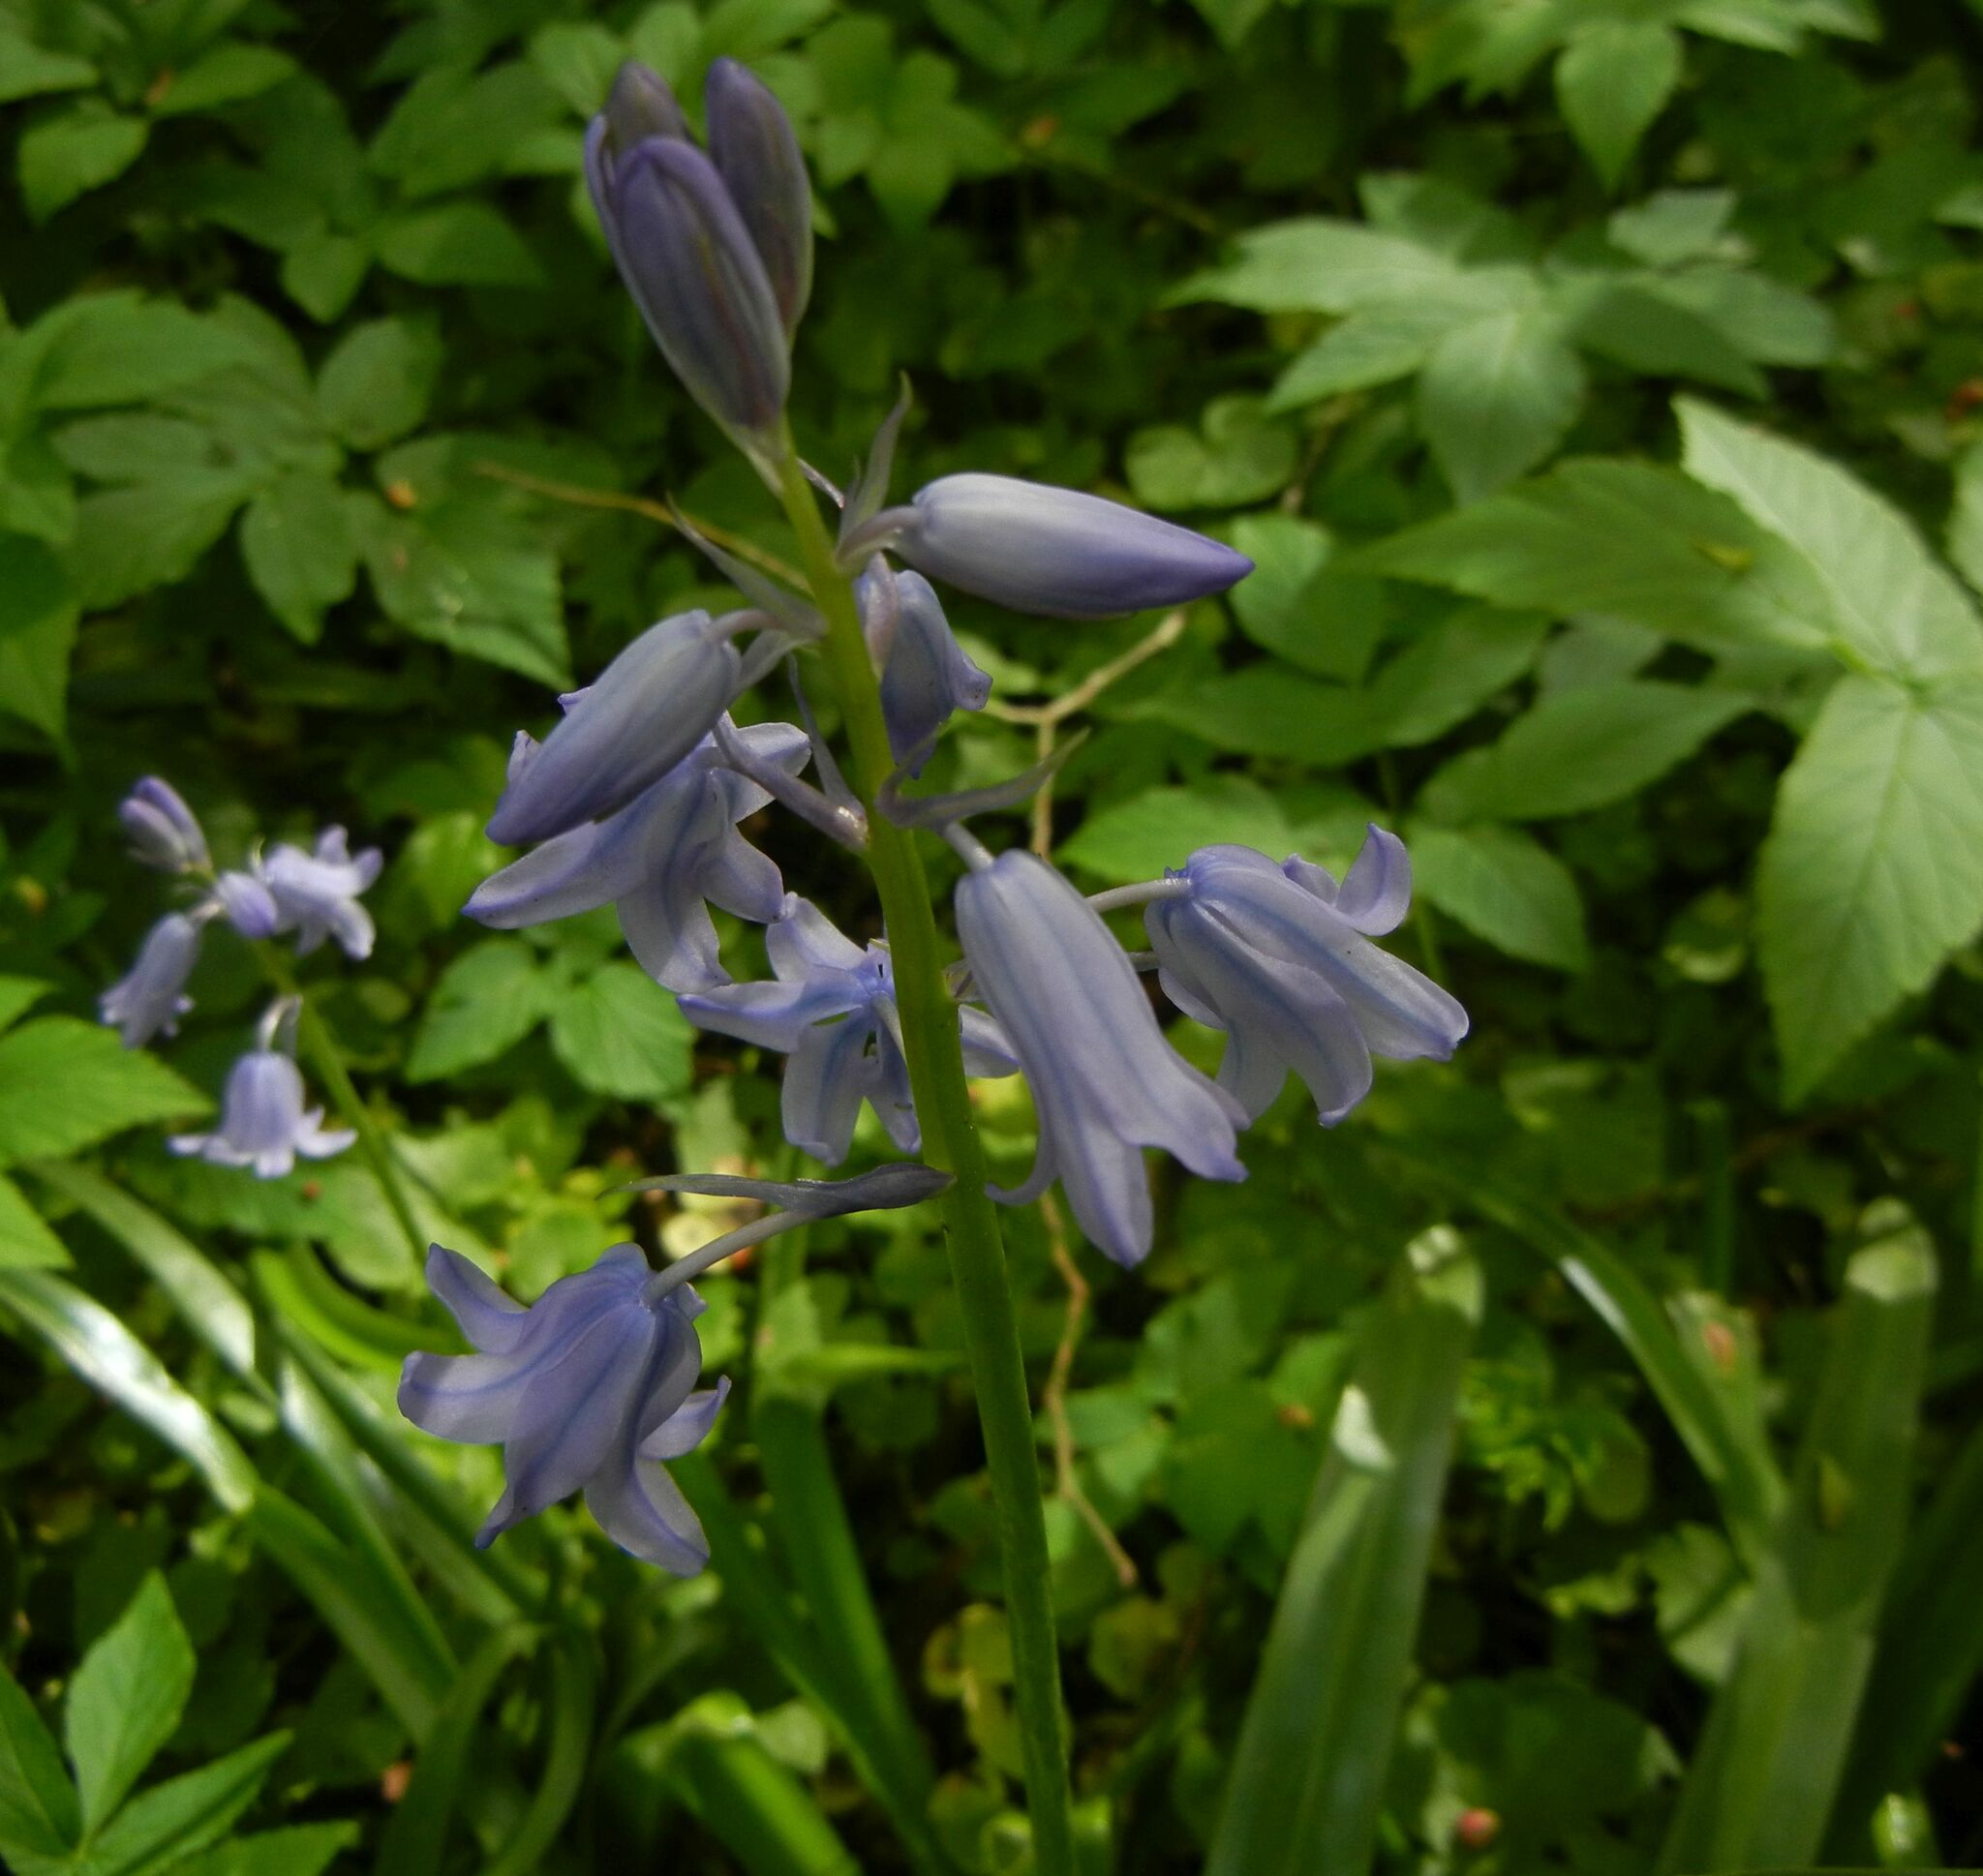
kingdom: Plantae
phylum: Tracheophyta
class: Liliopsida
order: Asparagales
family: Asparagaceae
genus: Hyacinthoides
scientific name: Hyacinthoides massartiana
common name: Hyacinthoides
